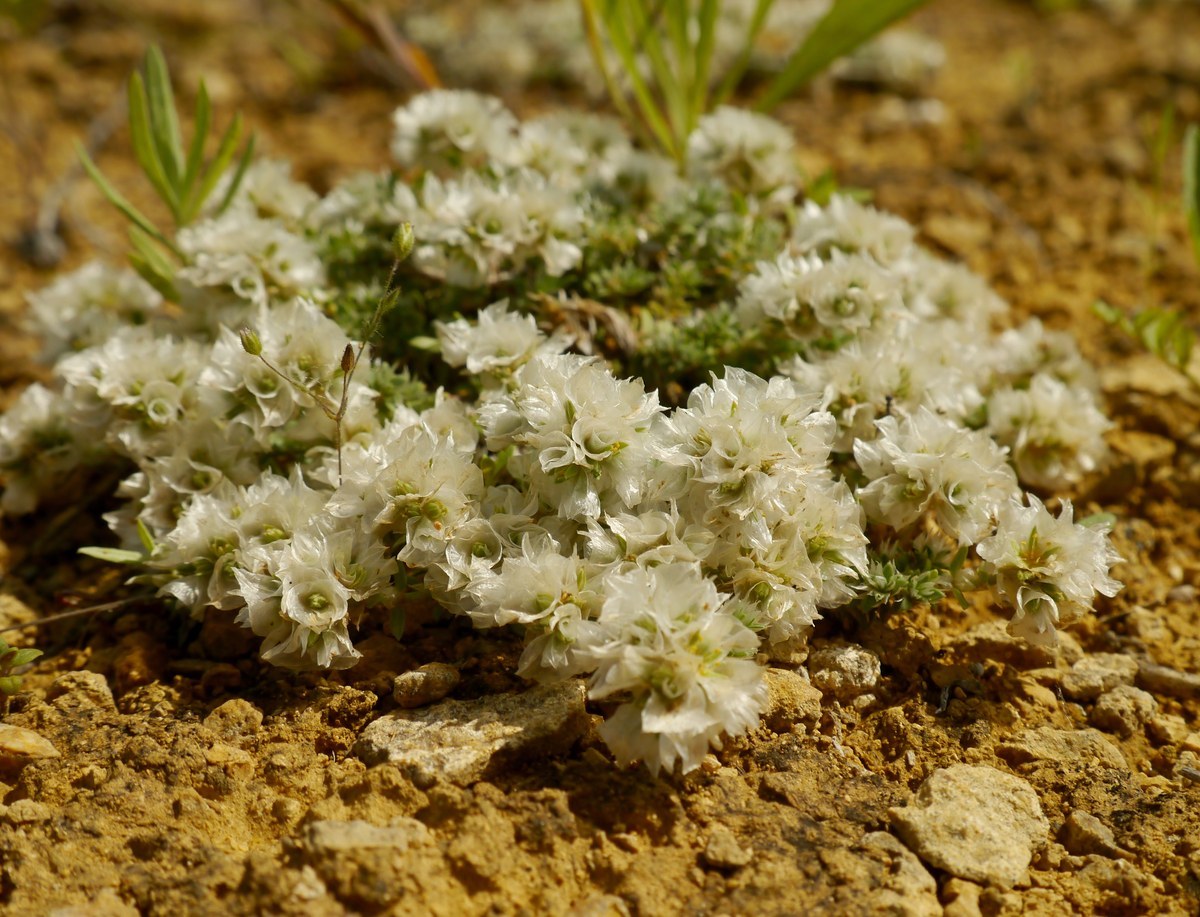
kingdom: Plantae
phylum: Tracheophyta
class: Magnoliopsida
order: Caryophyllales
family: Caryophyllaceae
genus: Paronychia
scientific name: Paronychia cephalotes
